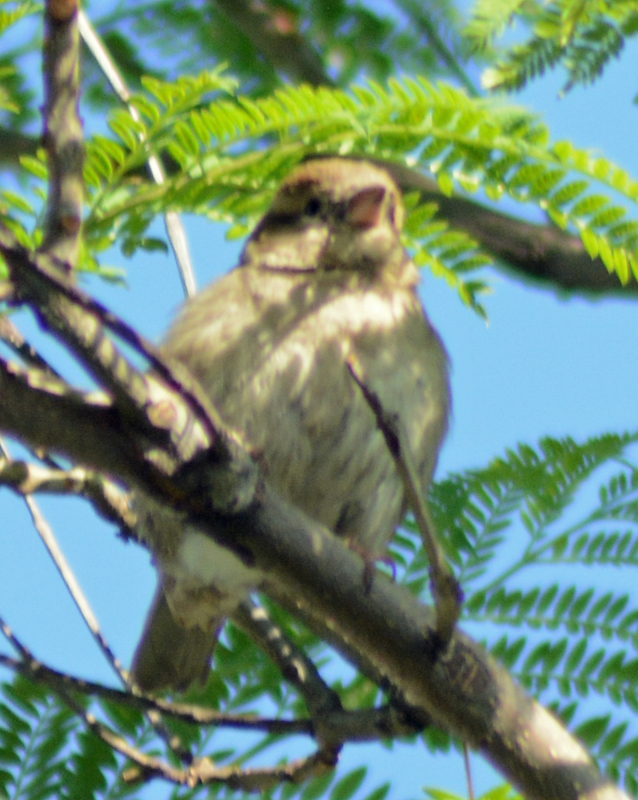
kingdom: Animalia
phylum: Chordata
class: Aves
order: Passeriformes
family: Passeridae
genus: Passer
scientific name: Passer domesticus
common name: House sparrow
